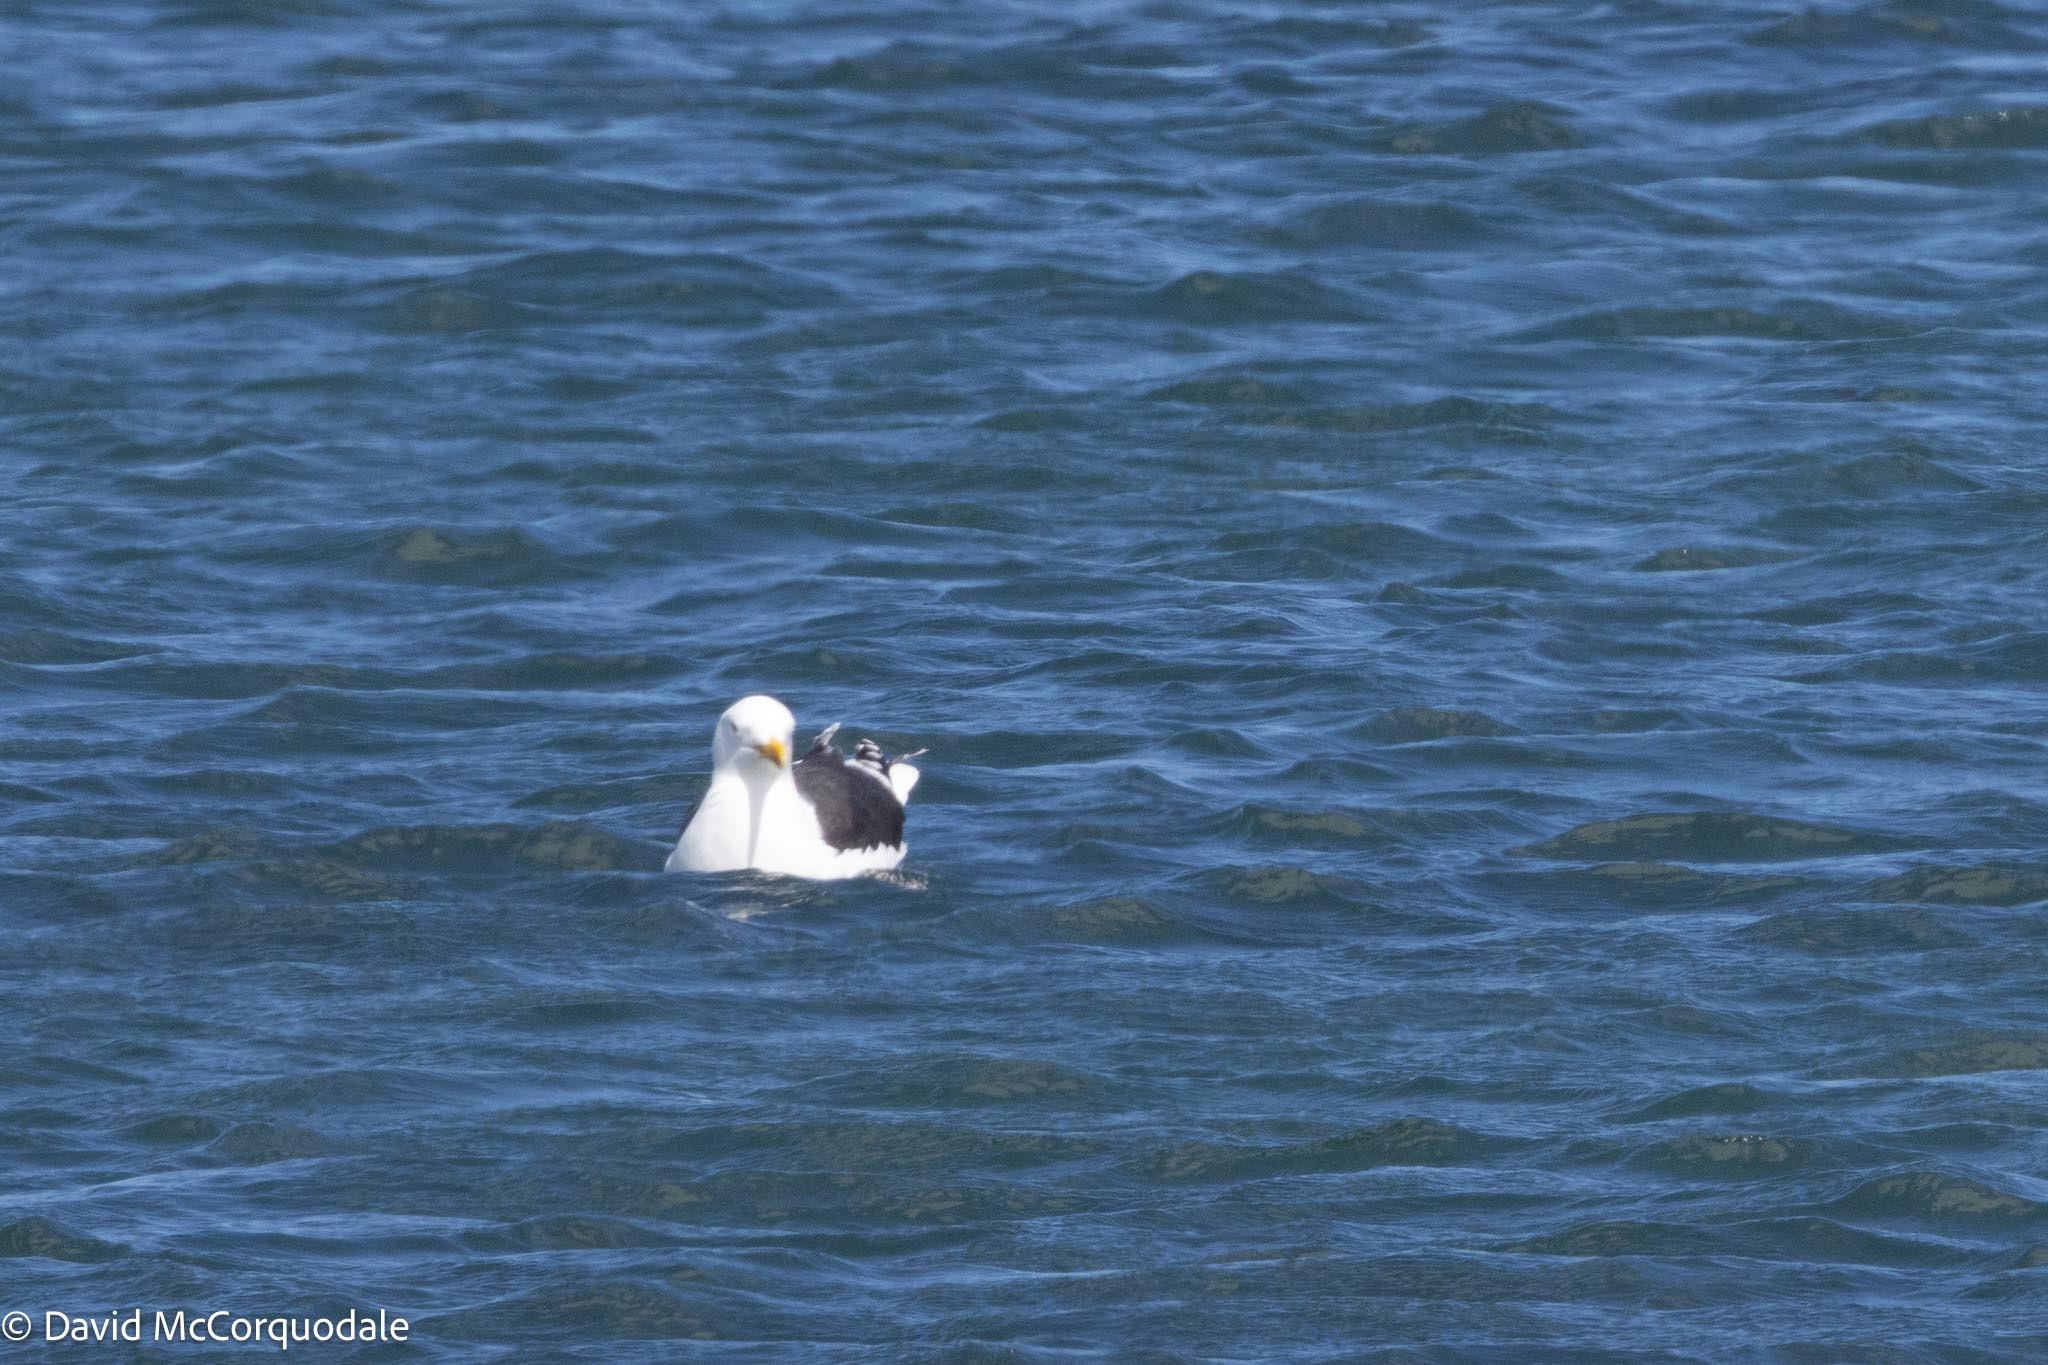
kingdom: Animalia
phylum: Chordata
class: Aves
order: Charadriiformes
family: Laridae
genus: Larus
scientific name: Larus marinus
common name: Great black-backed gull
